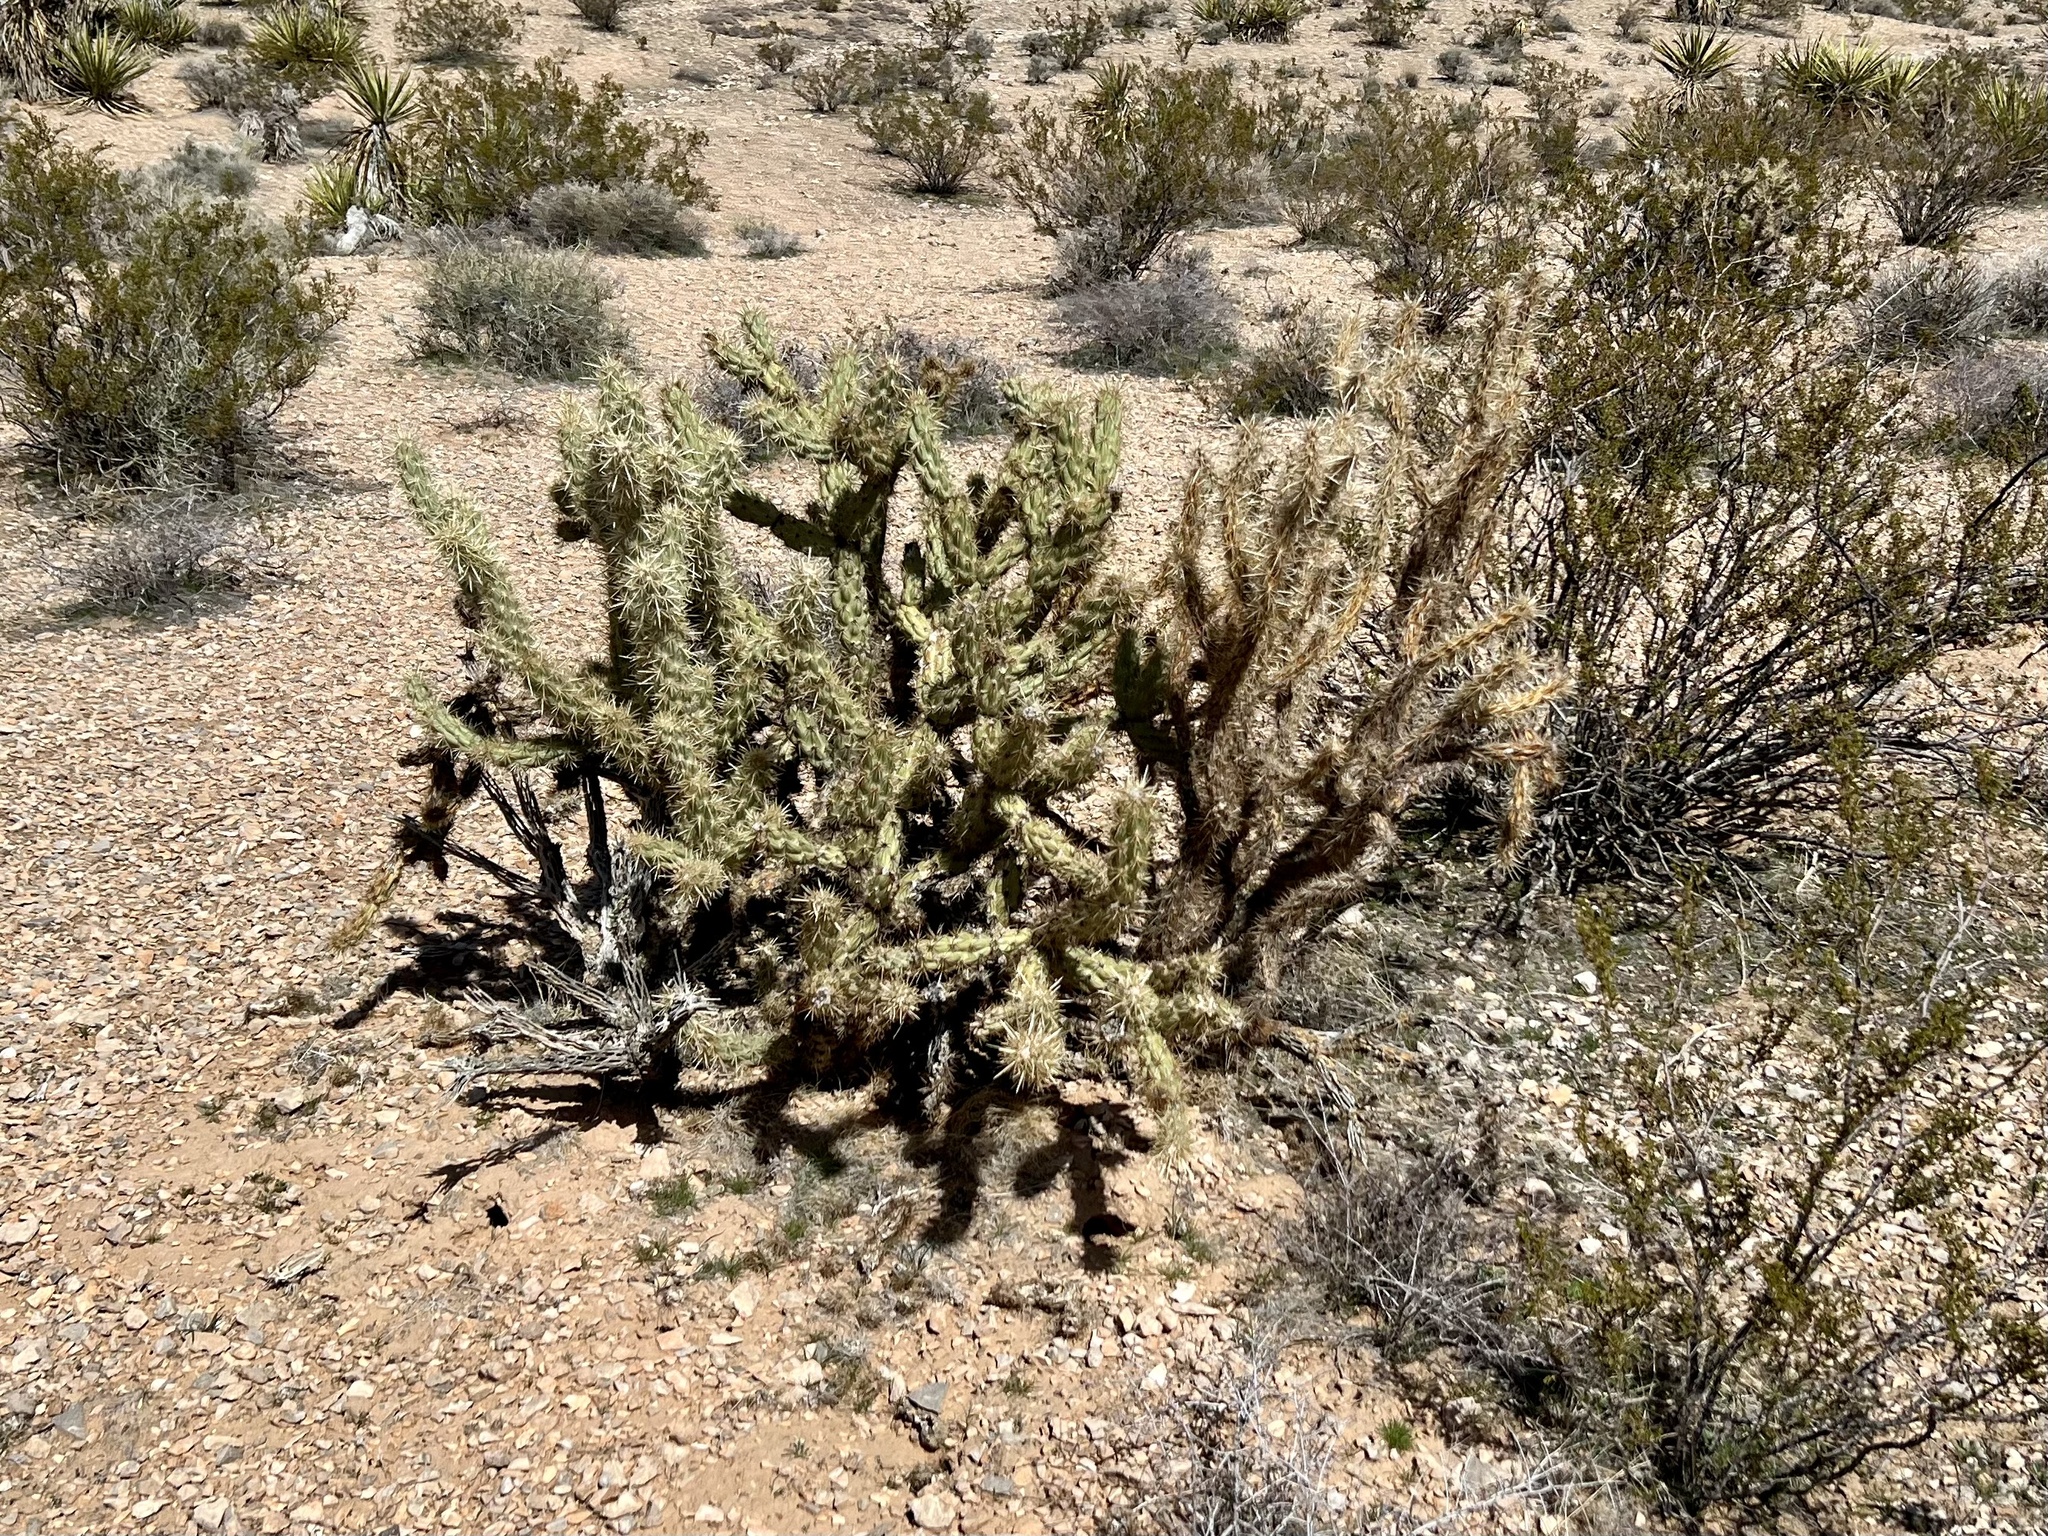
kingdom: Plantae
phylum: Tracheophyta
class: Magnoliopsida
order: Caryophyllales
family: Cactaceae
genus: Cylindropuntia
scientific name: Cylindropuntia acanthocarpa
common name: Buckhorn cholla
